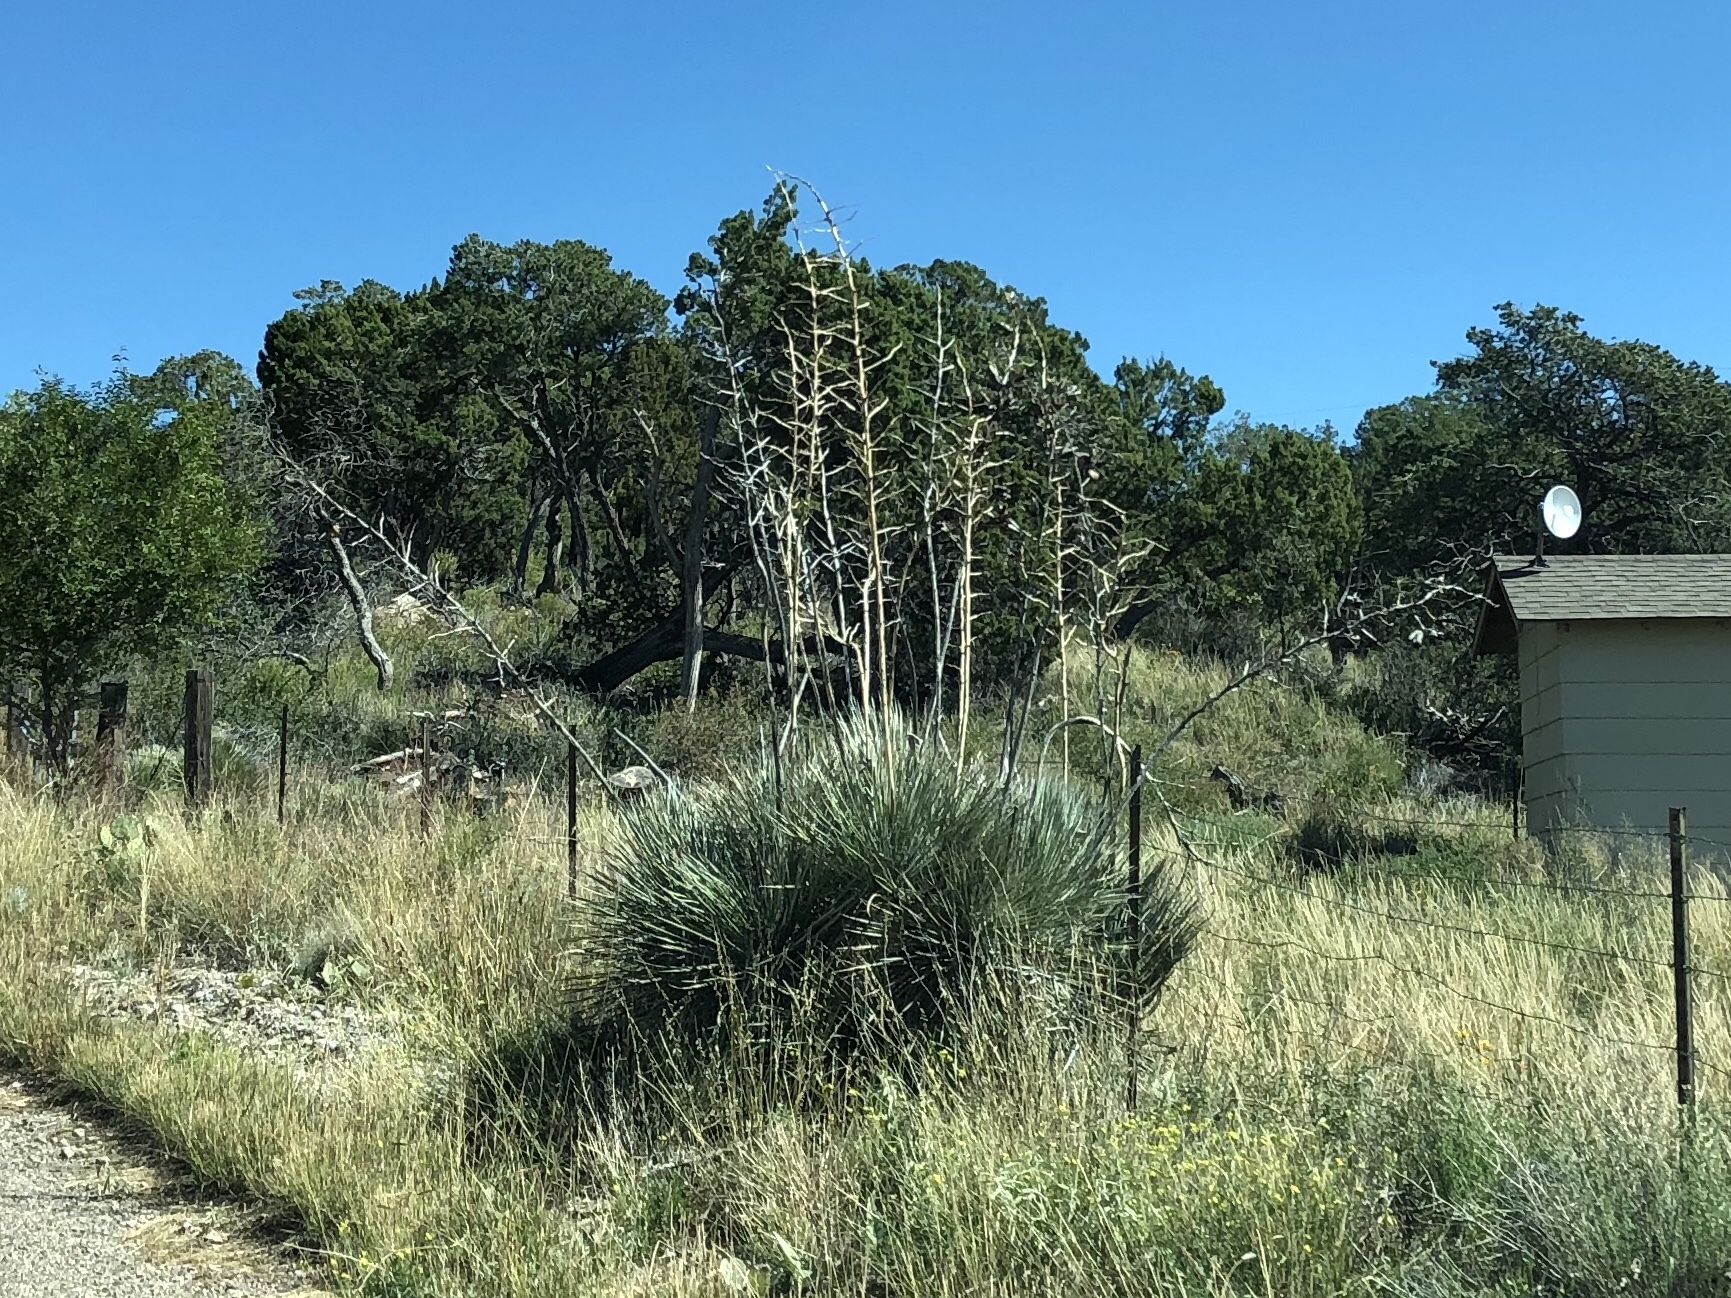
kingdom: Plantae
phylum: Tracheophyta
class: Liliopsida
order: Asparagales
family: Asparagaceae
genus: Yucca
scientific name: Yucca elata
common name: Palmella
